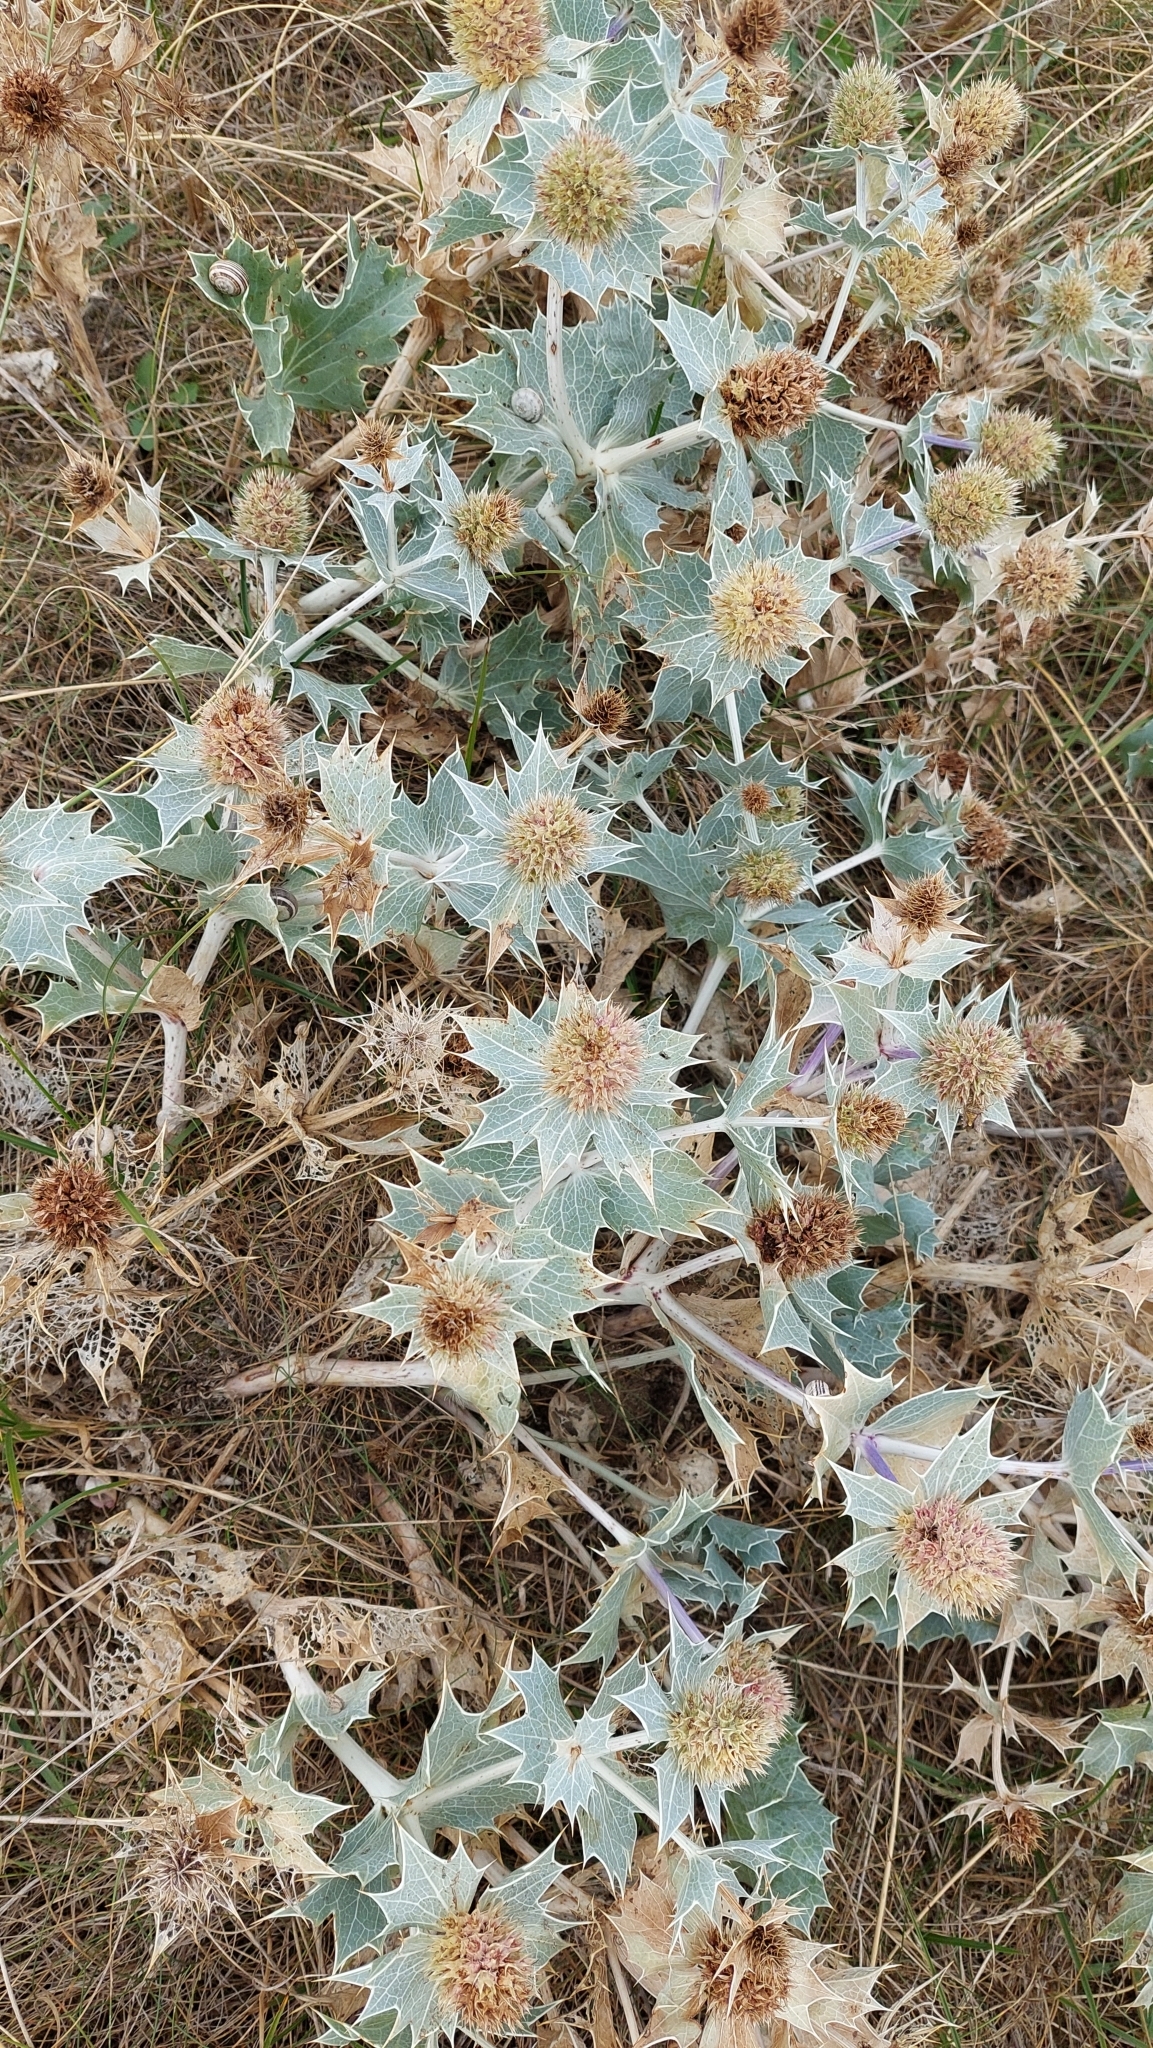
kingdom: Plantae
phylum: Tracheophyta
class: Magnoliopsida
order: Apiales
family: Apiaceae
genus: Eryngium
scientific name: Eryngium maritimum
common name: Sea-holly
